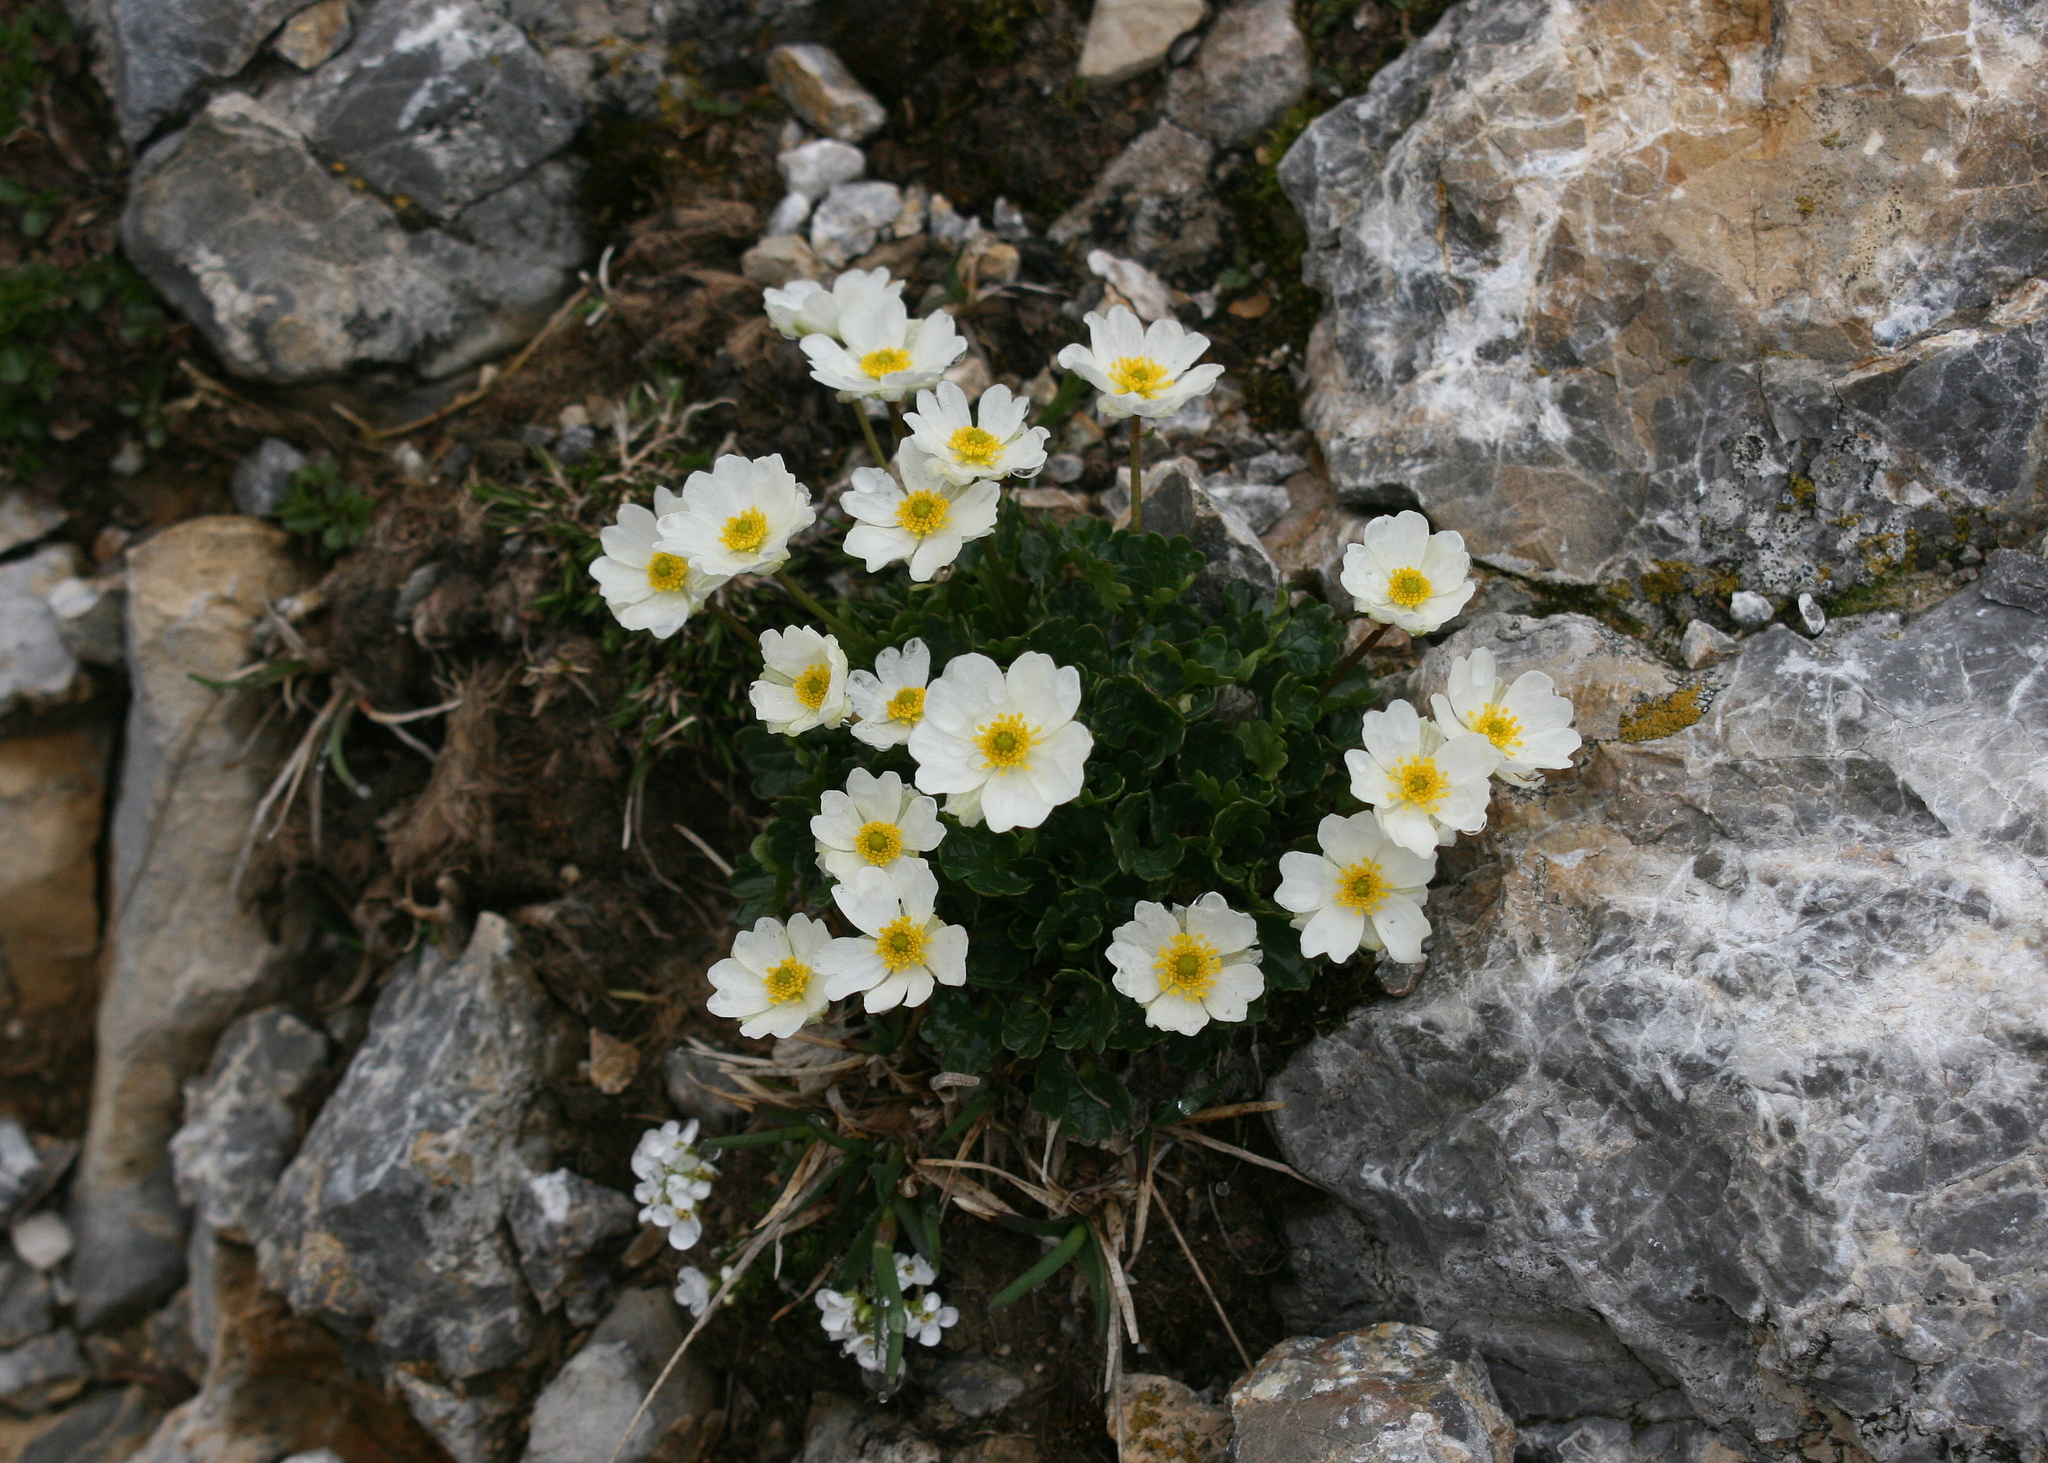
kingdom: Plantae
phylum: Tracheophyta
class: Magnoliopsida
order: Ranunculales
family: Ranunculaceae
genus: Ranunculus
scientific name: Ranunculus alpestris
